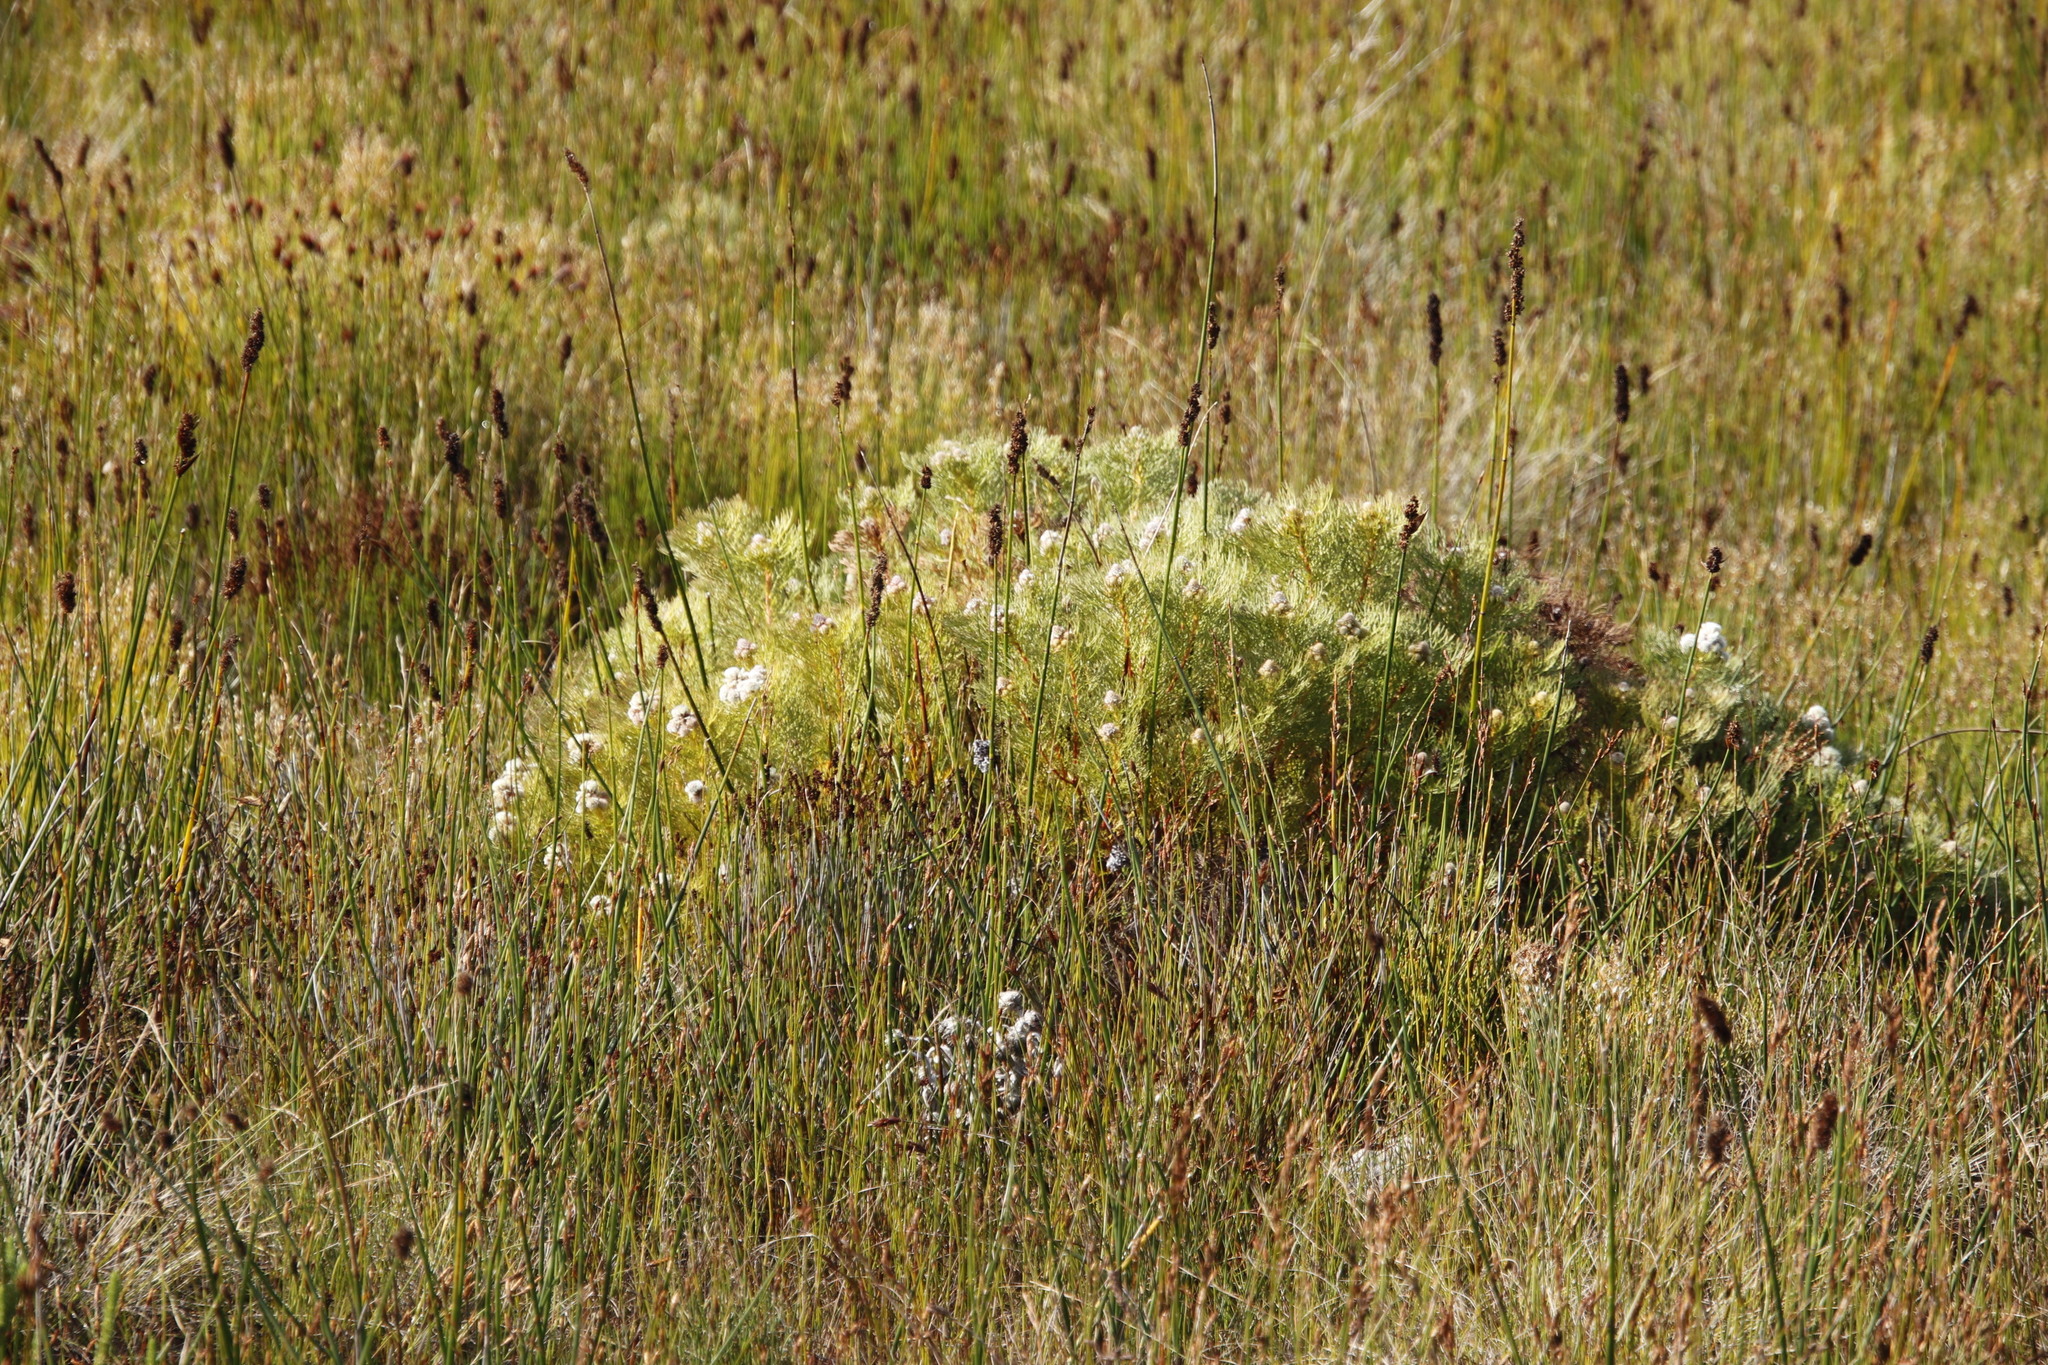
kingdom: Plantae
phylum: Tracheophyta
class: Magnoliopsida
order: Proteales
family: Proteaceae
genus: Serruria
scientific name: Serruria glomerata
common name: Cluster spiderhead
